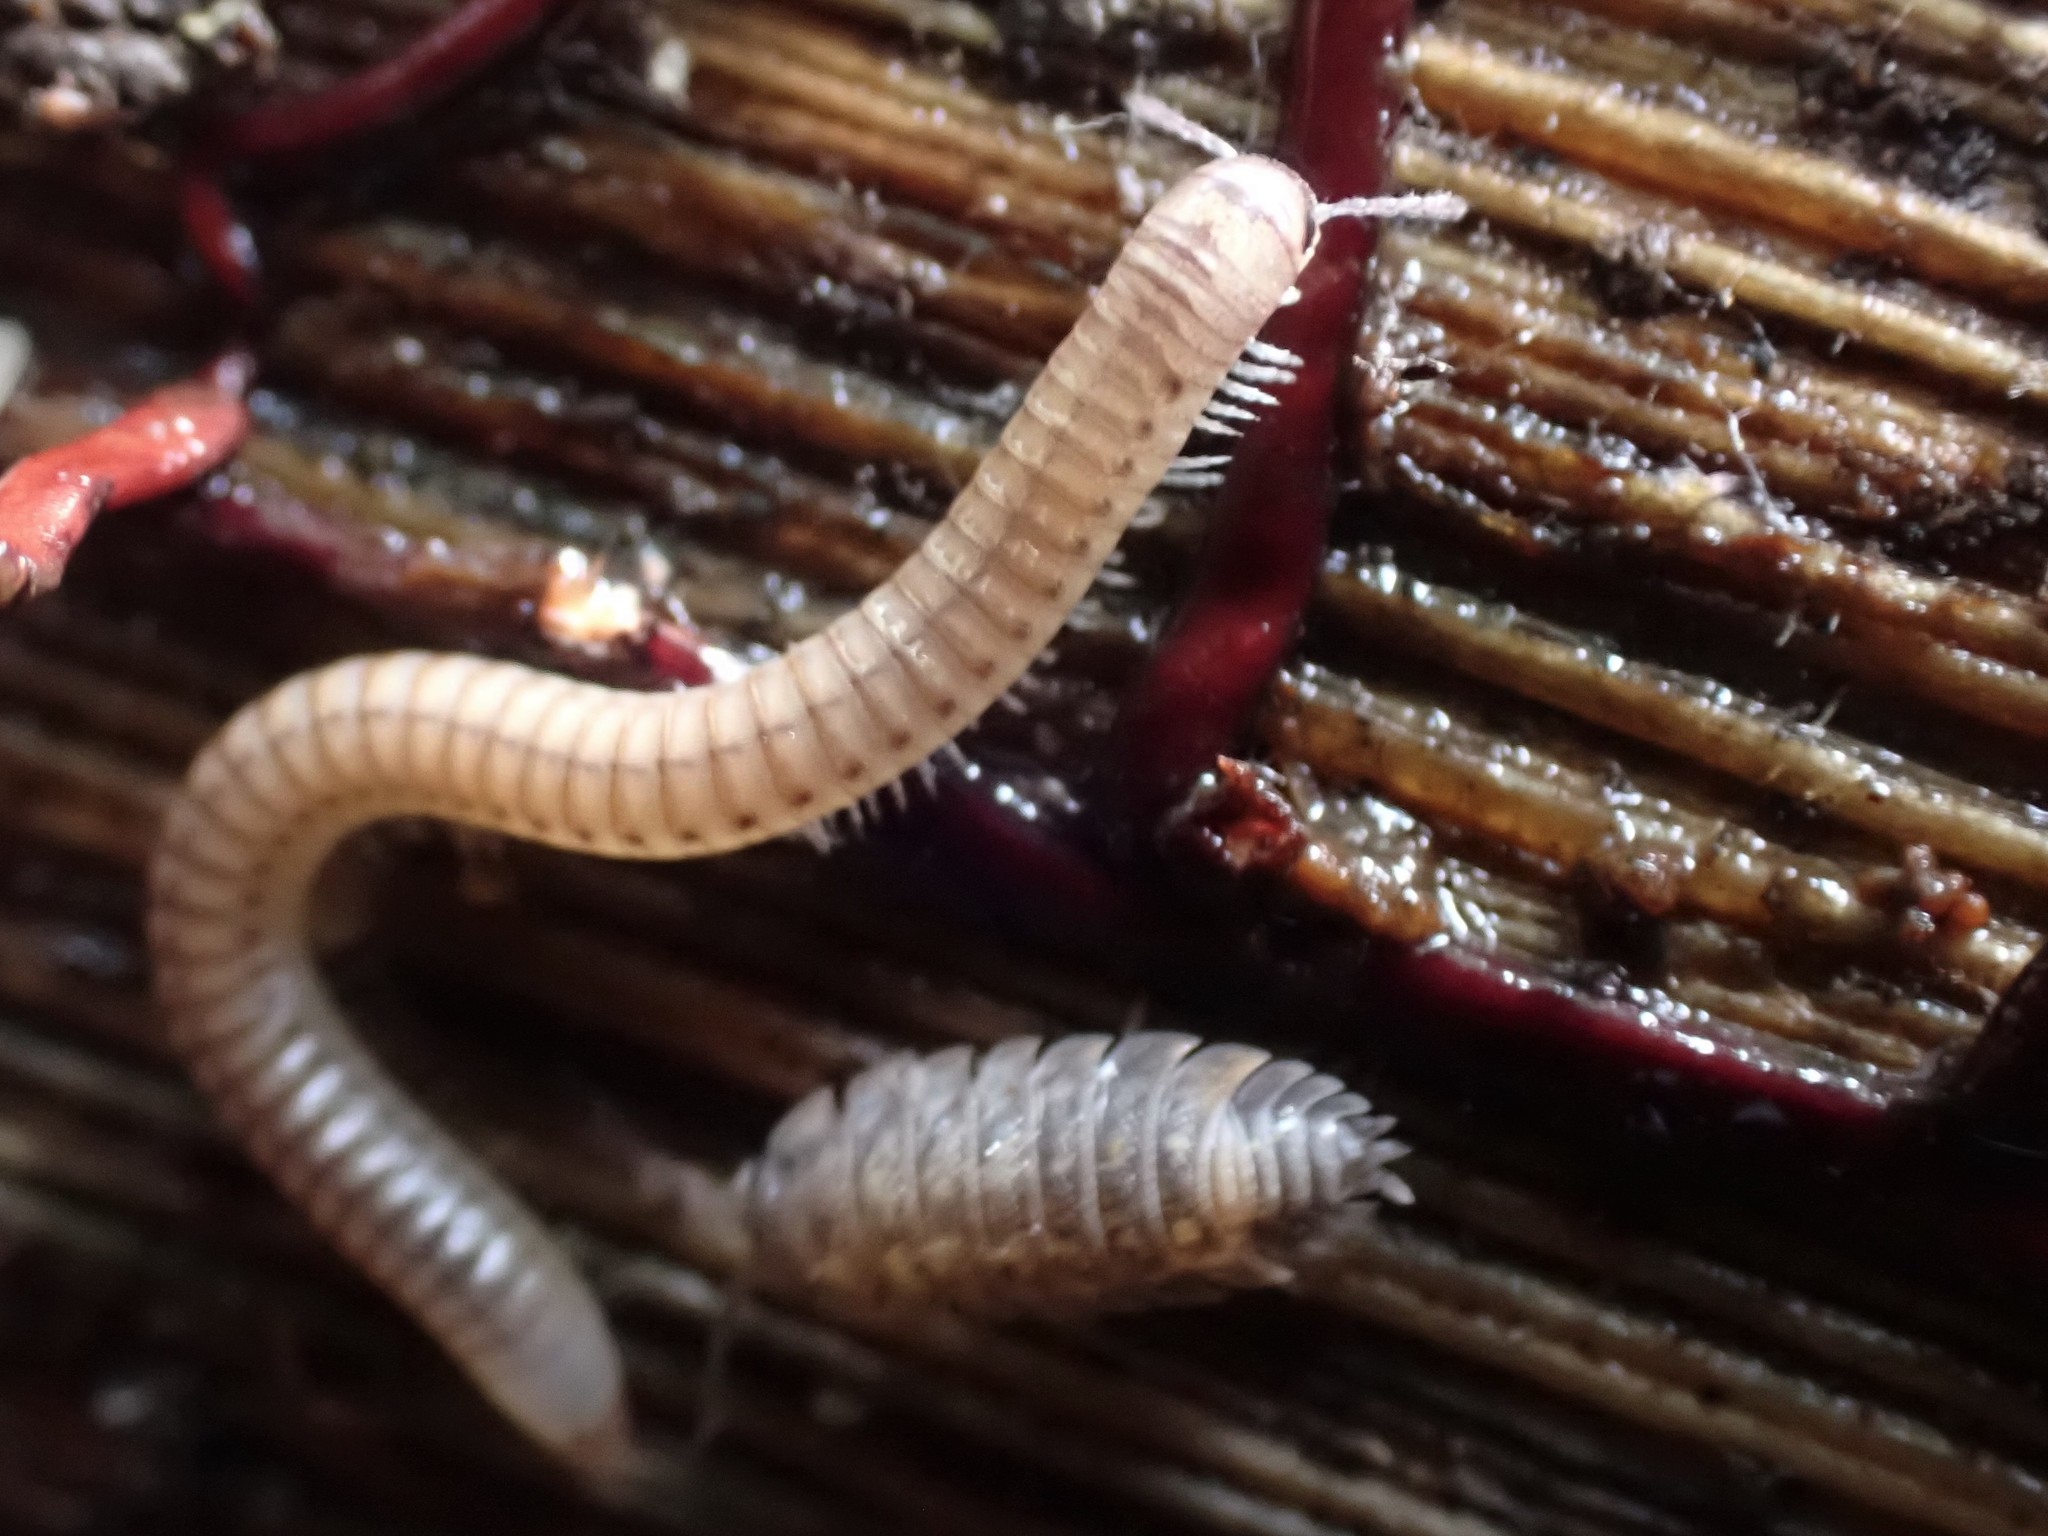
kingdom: Animalia
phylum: Arthropoda
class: Diplopoda
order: Julida
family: Julidae
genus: Cylindroiulus
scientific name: Cylindroiulus punctatus
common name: Blunt-tailed millipede
